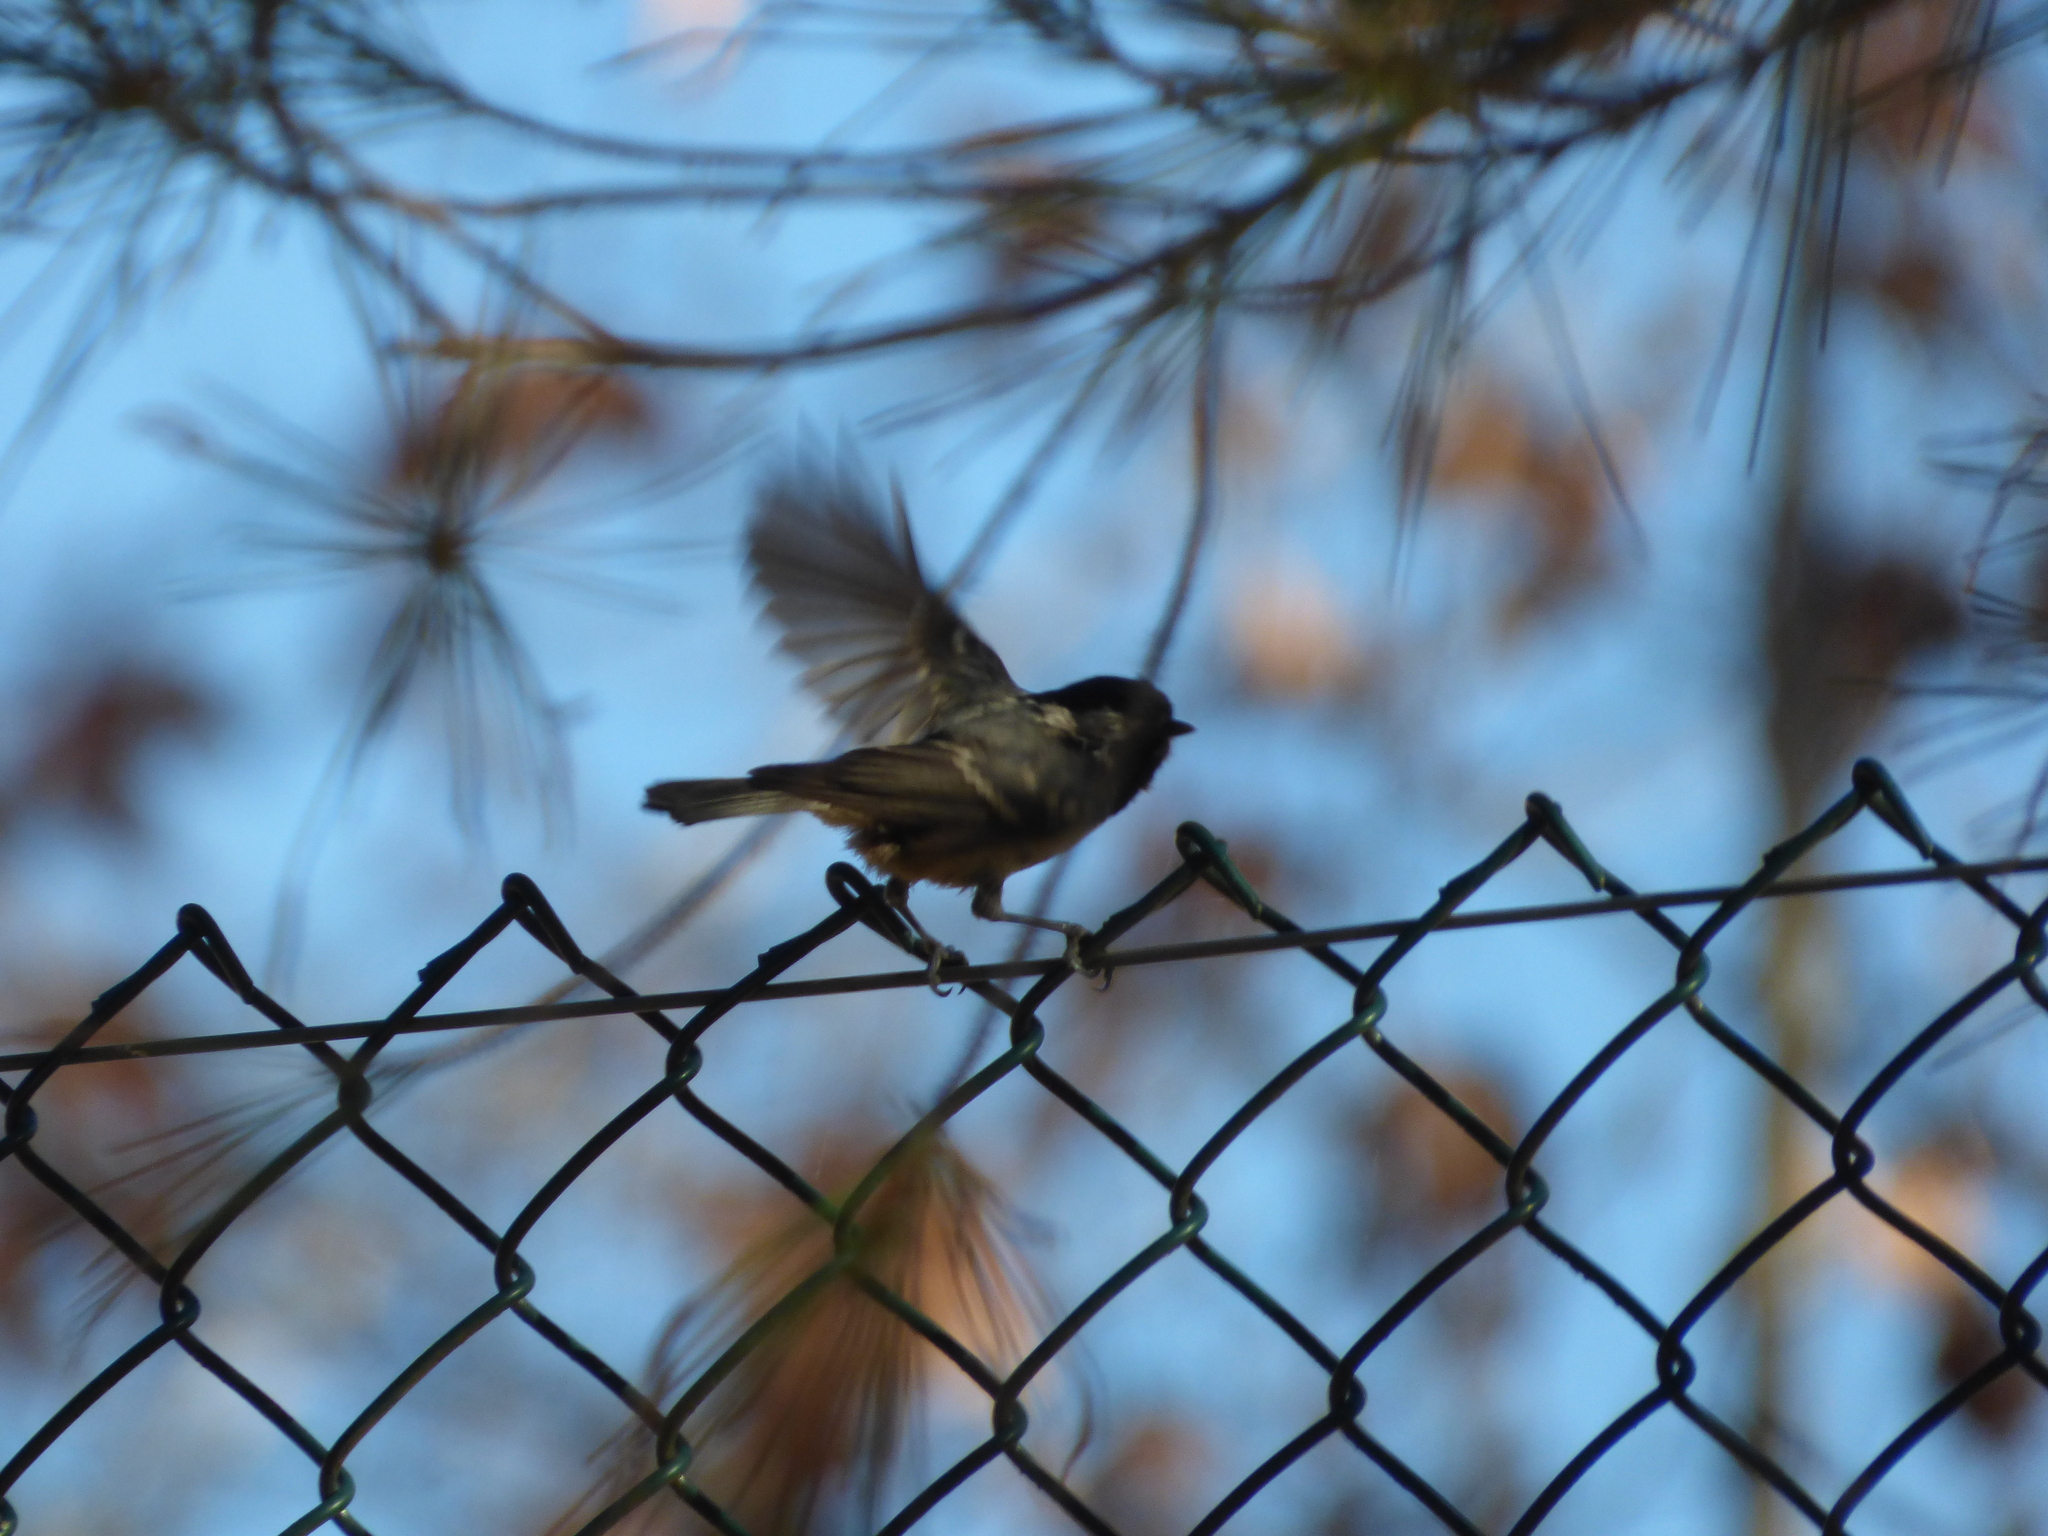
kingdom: Animalia
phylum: Chordata
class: Aves
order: Passeriformes
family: Paridae
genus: Periparus
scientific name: Periparus ater
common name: Coal tit
